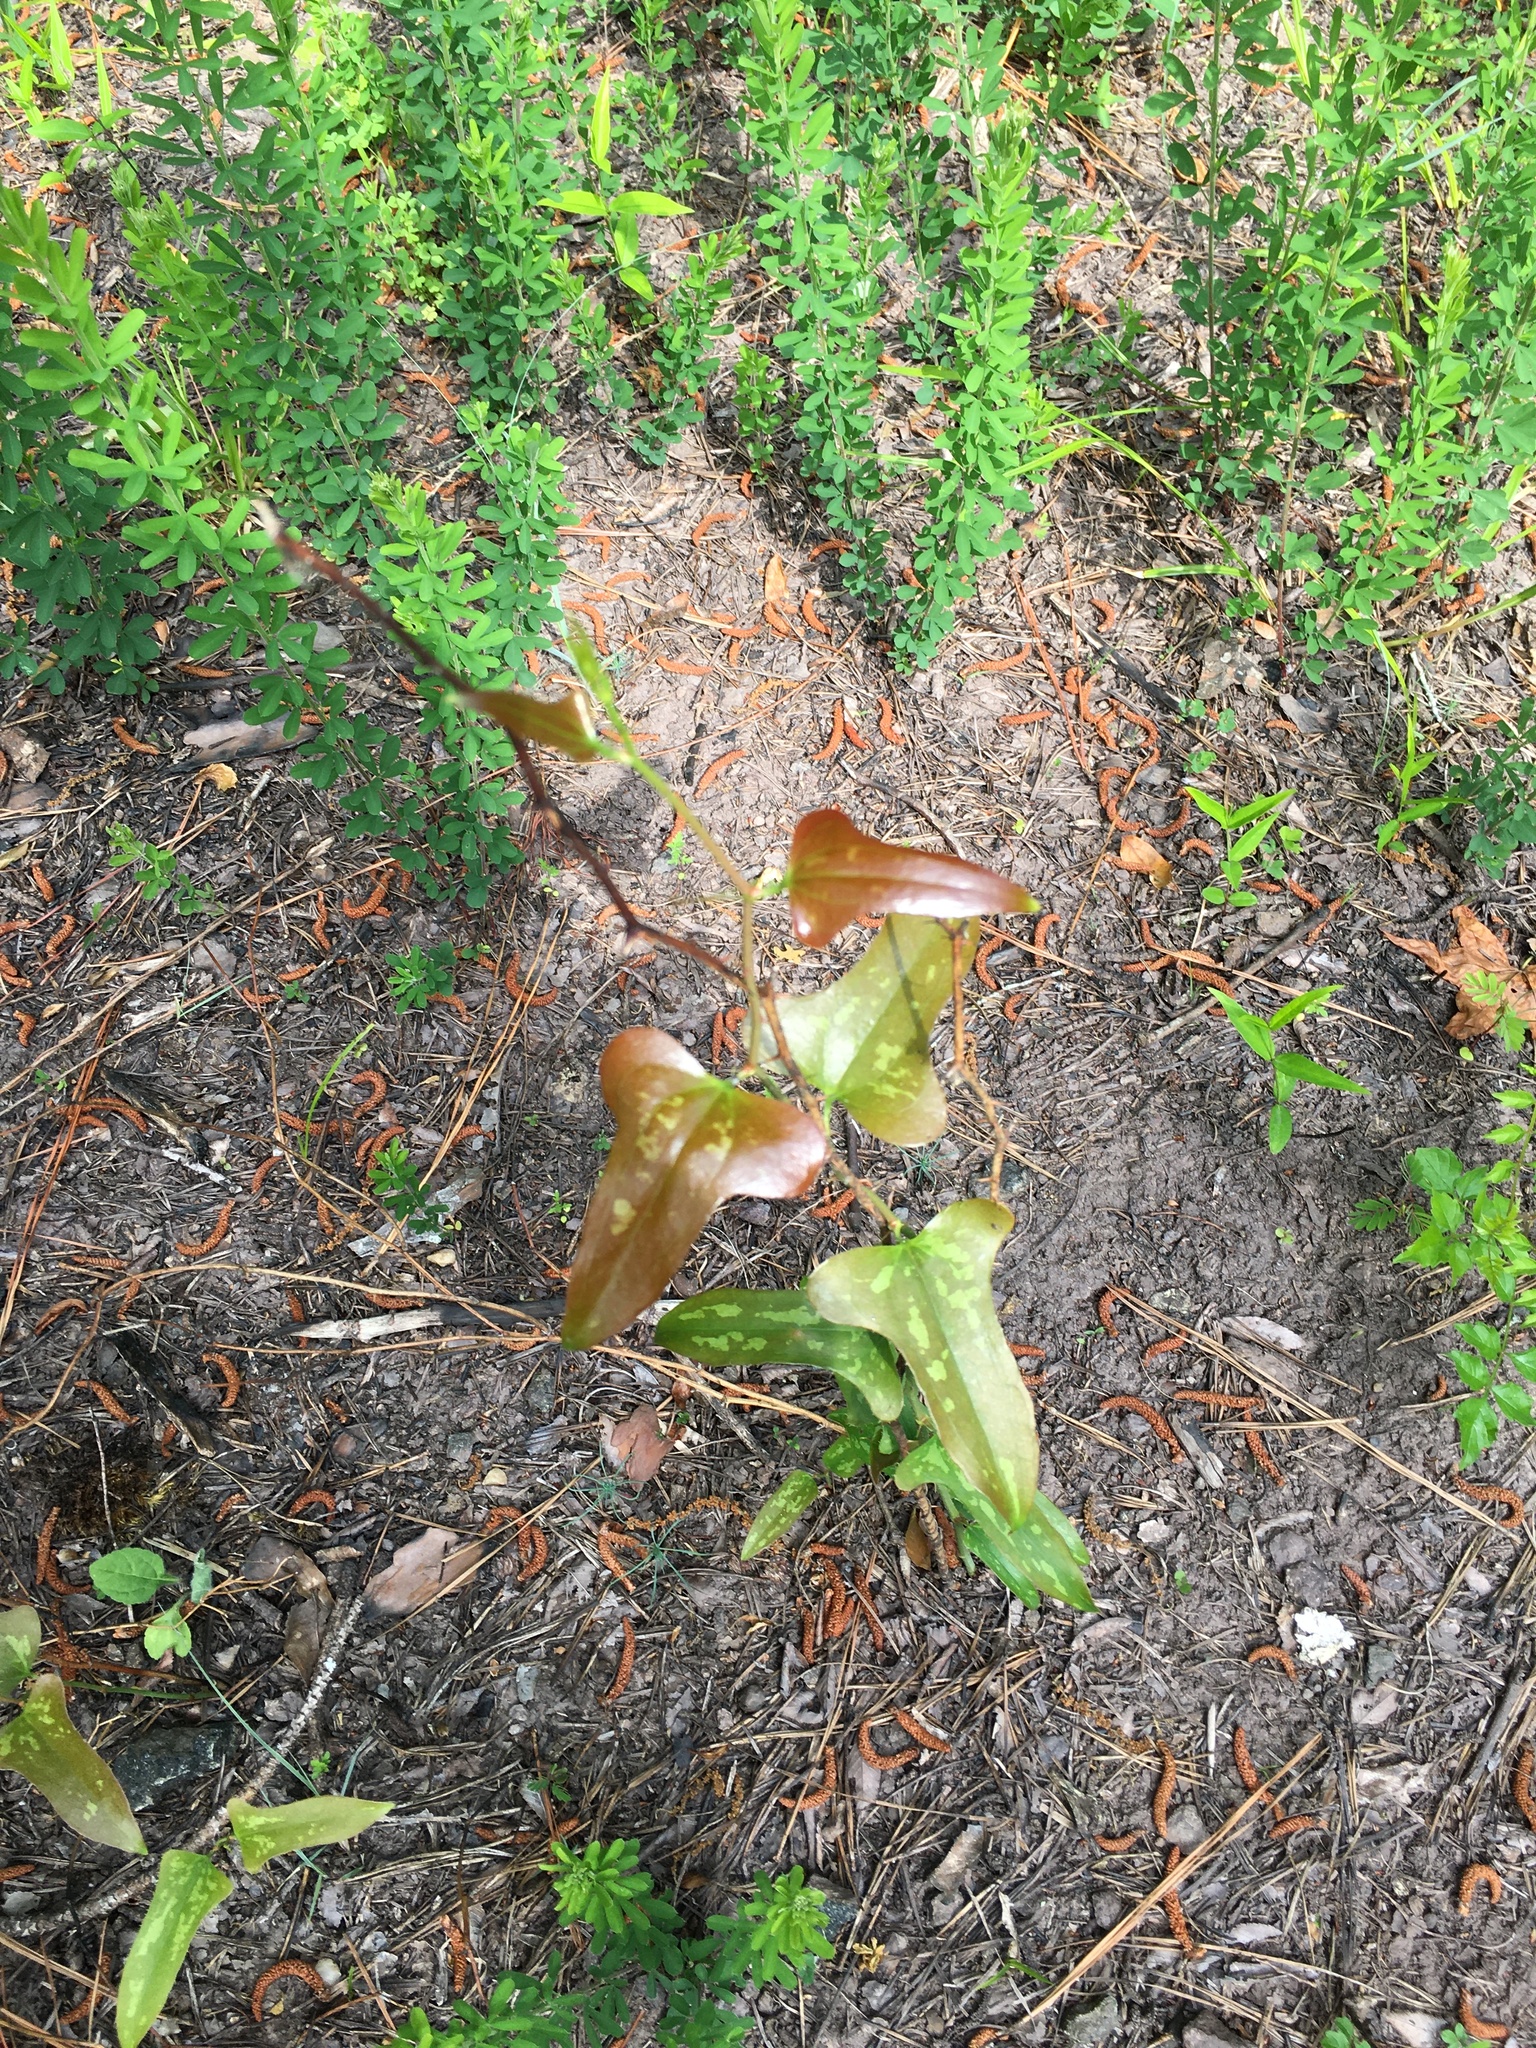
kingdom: Plantae
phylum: Tracheophyta
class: Liliopsida
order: Liliales
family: Smilacaceae
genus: Smilax
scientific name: Smilax bona-nox
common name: Catbrier
